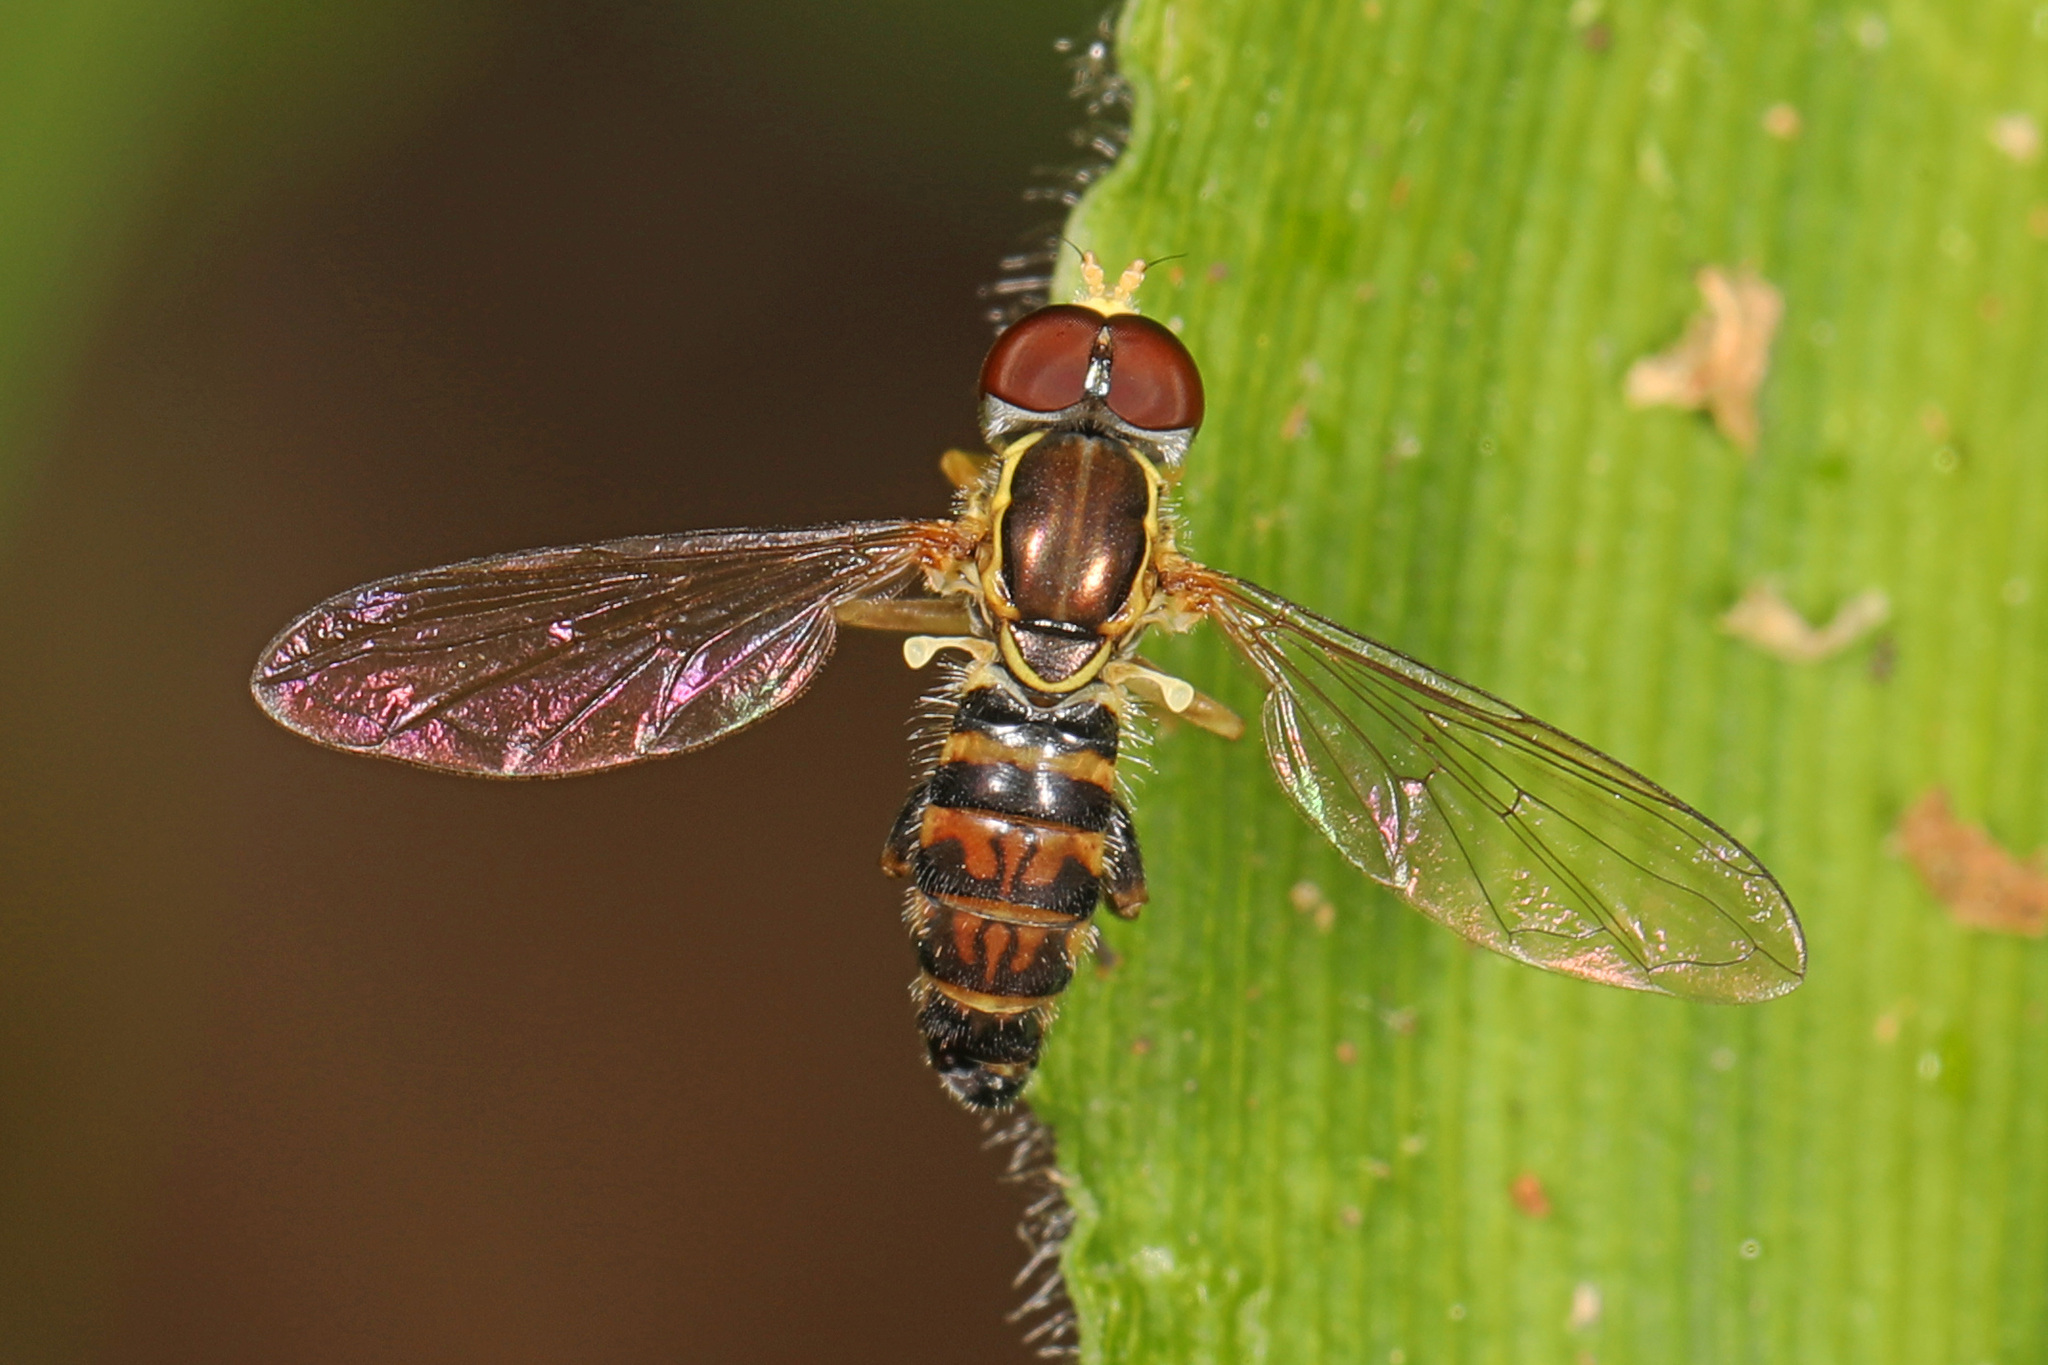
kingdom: Animalia
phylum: Arthropoda
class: Insecta
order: Diptera
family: Syrphidae
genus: Toxomerus
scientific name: Toxomerus geminatus
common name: Eastern calligrapher
